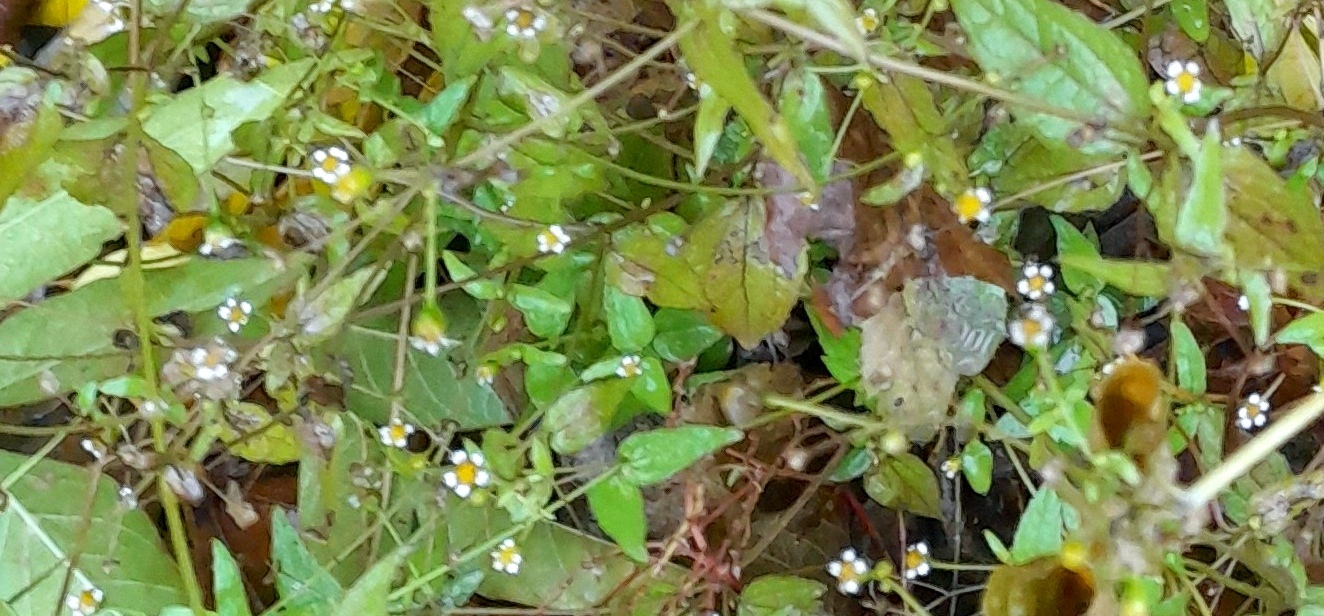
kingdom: Plantae
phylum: Tracheophyta
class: Magnoliopsida
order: Asterales
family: Asteraceae
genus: Galinsoga
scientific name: Galinsoga quadriradiata
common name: Shaggy soldier
